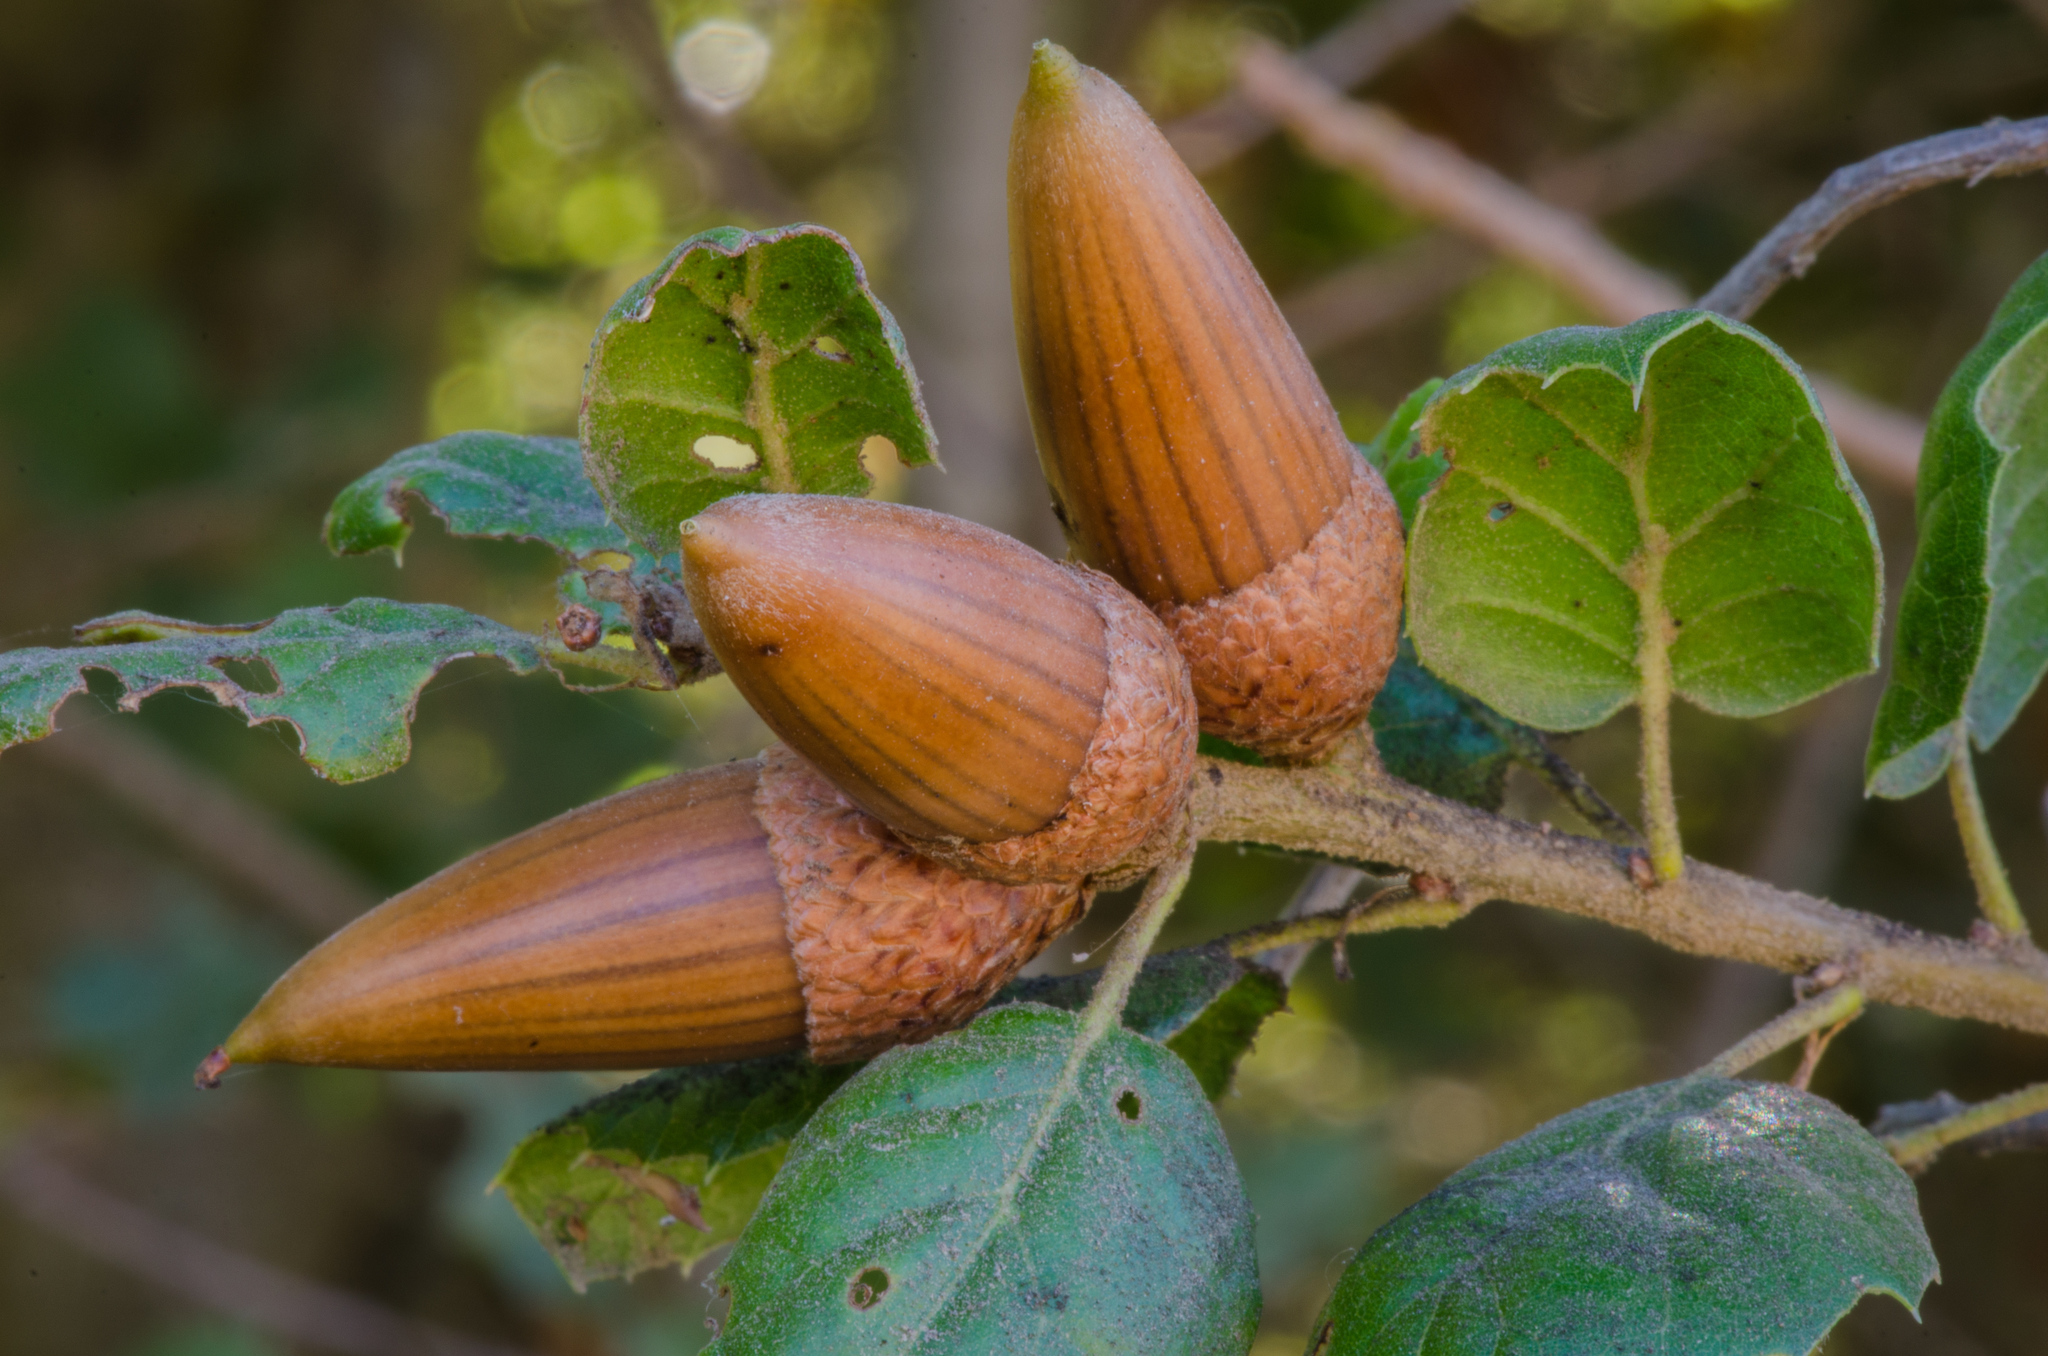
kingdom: Plantae
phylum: Tracheophyta
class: Magnoliopsida
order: Fagales
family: Fagaceae
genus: Quercus
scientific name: Quercus agrifolia
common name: California live oak
